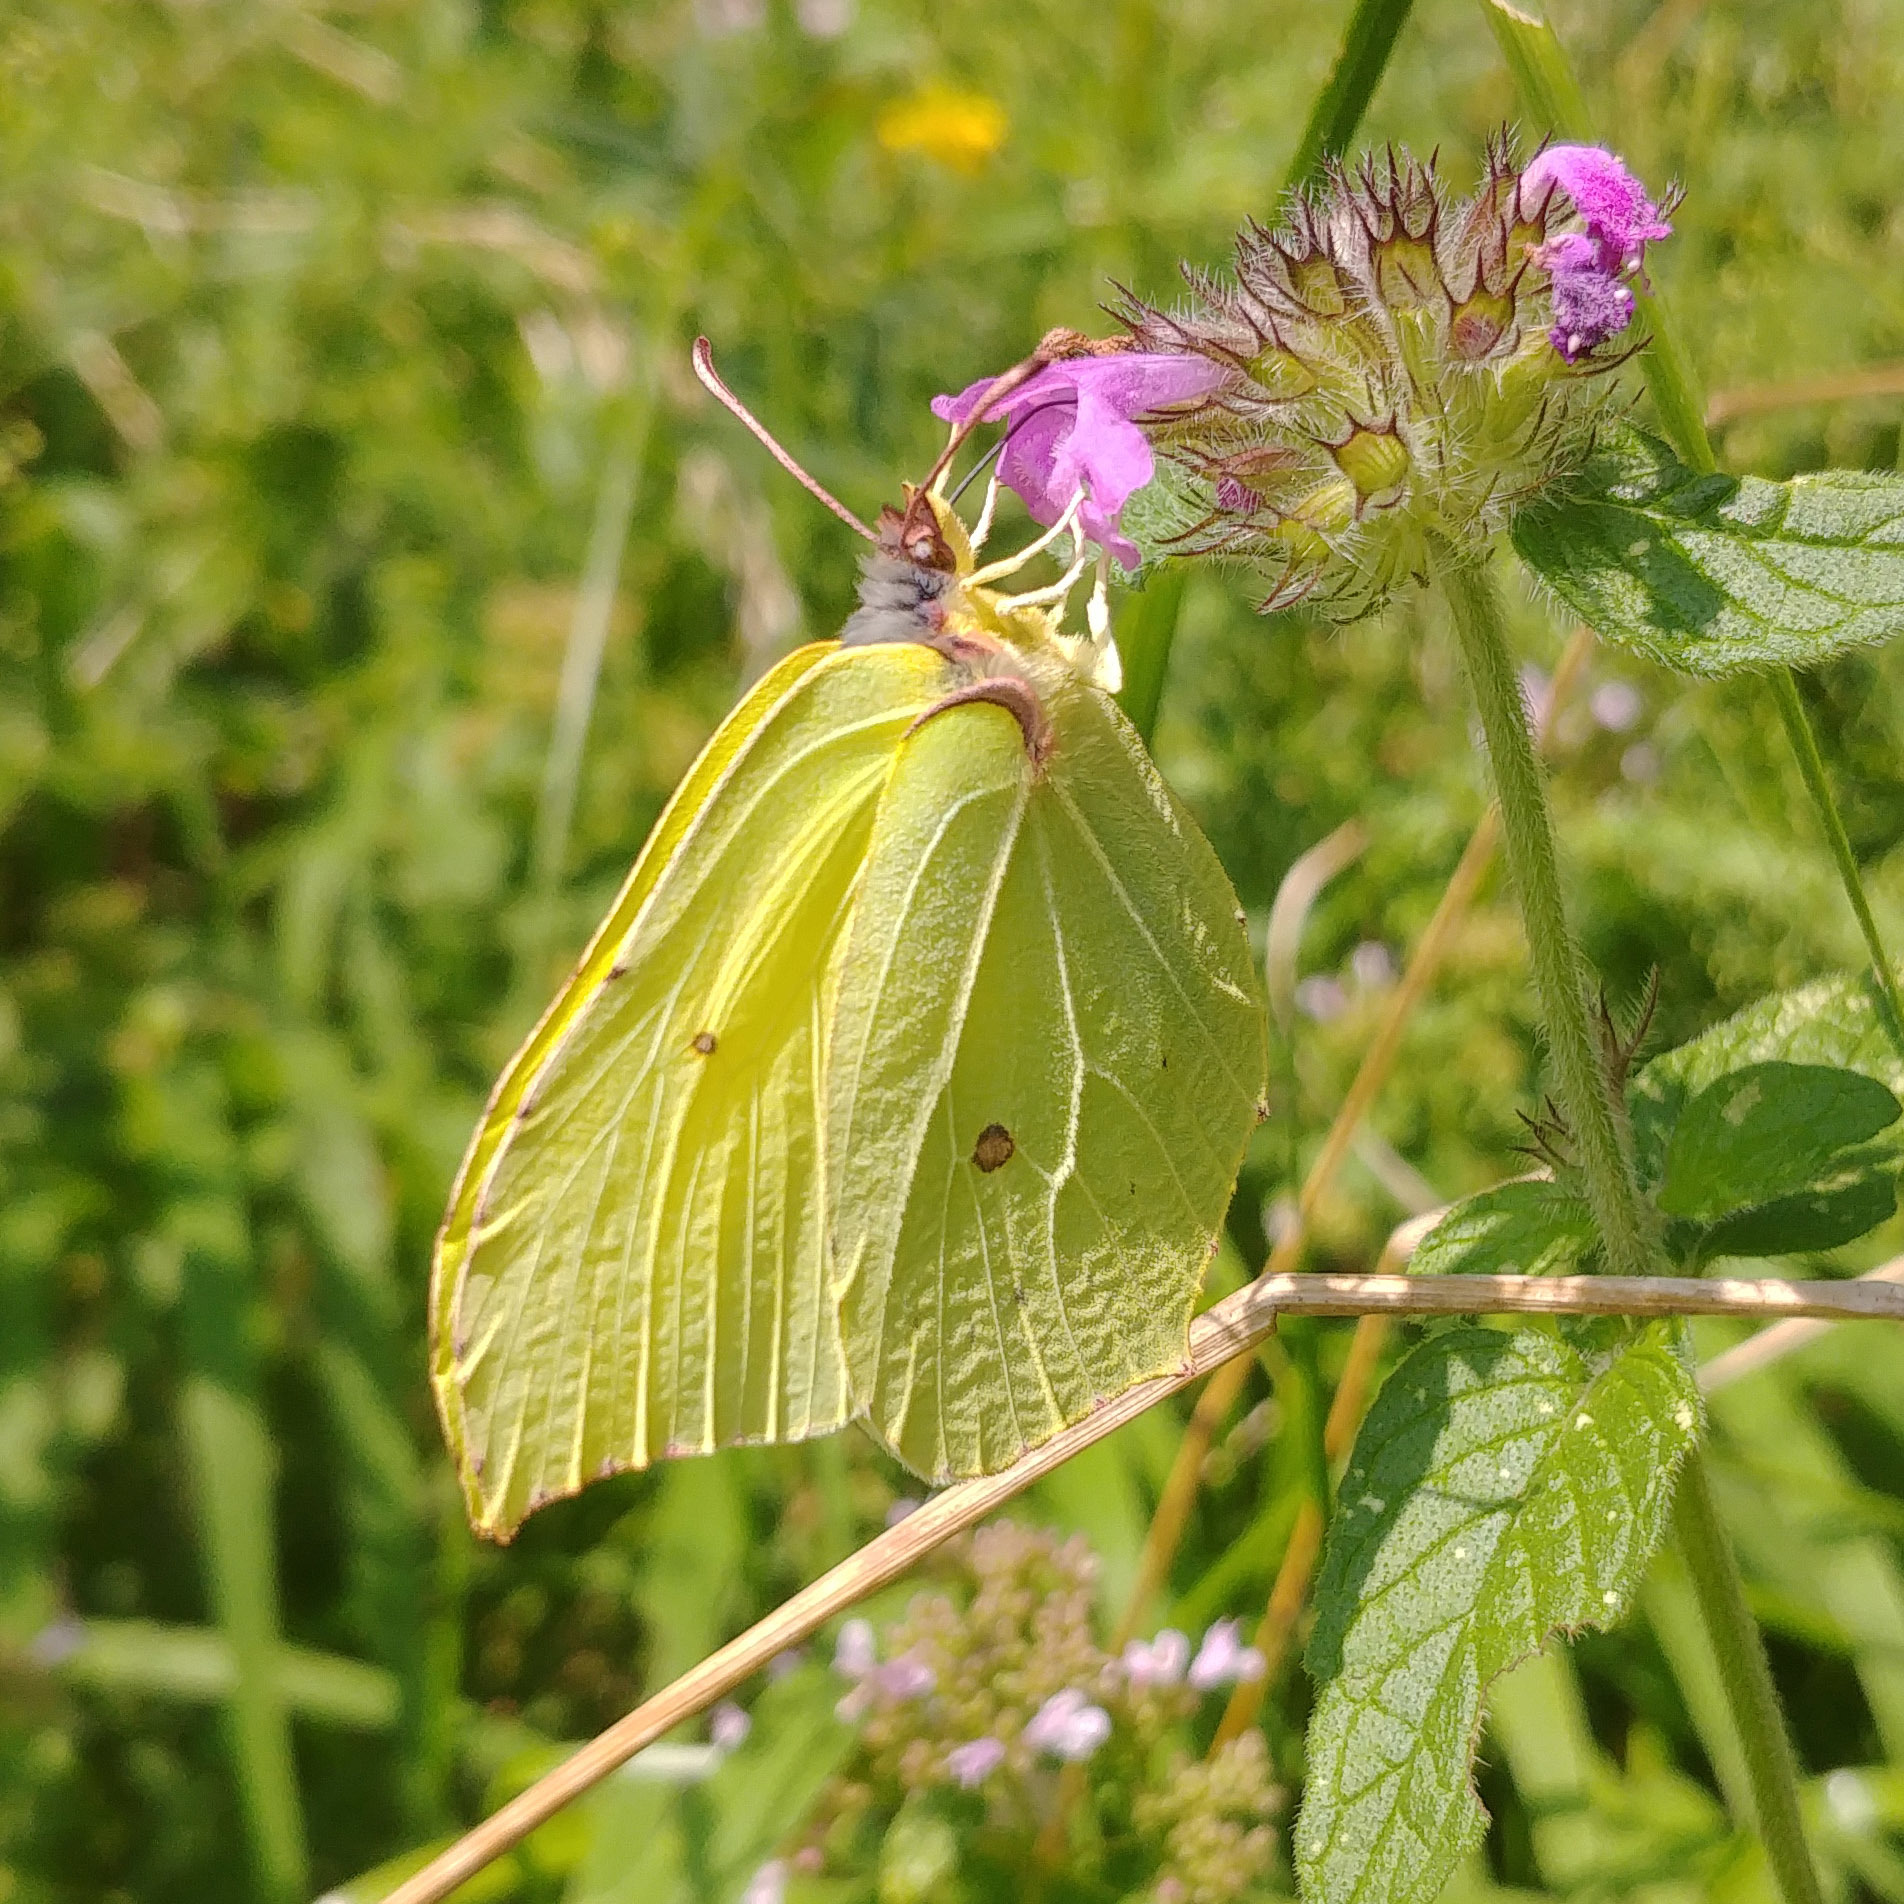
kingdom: Animalia
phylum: Arthropoda
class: Insecta
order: Lepidoptera
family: Pieridae
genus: Gonepteryx
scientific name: Gonepteryx rhamni
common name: Brimstone
